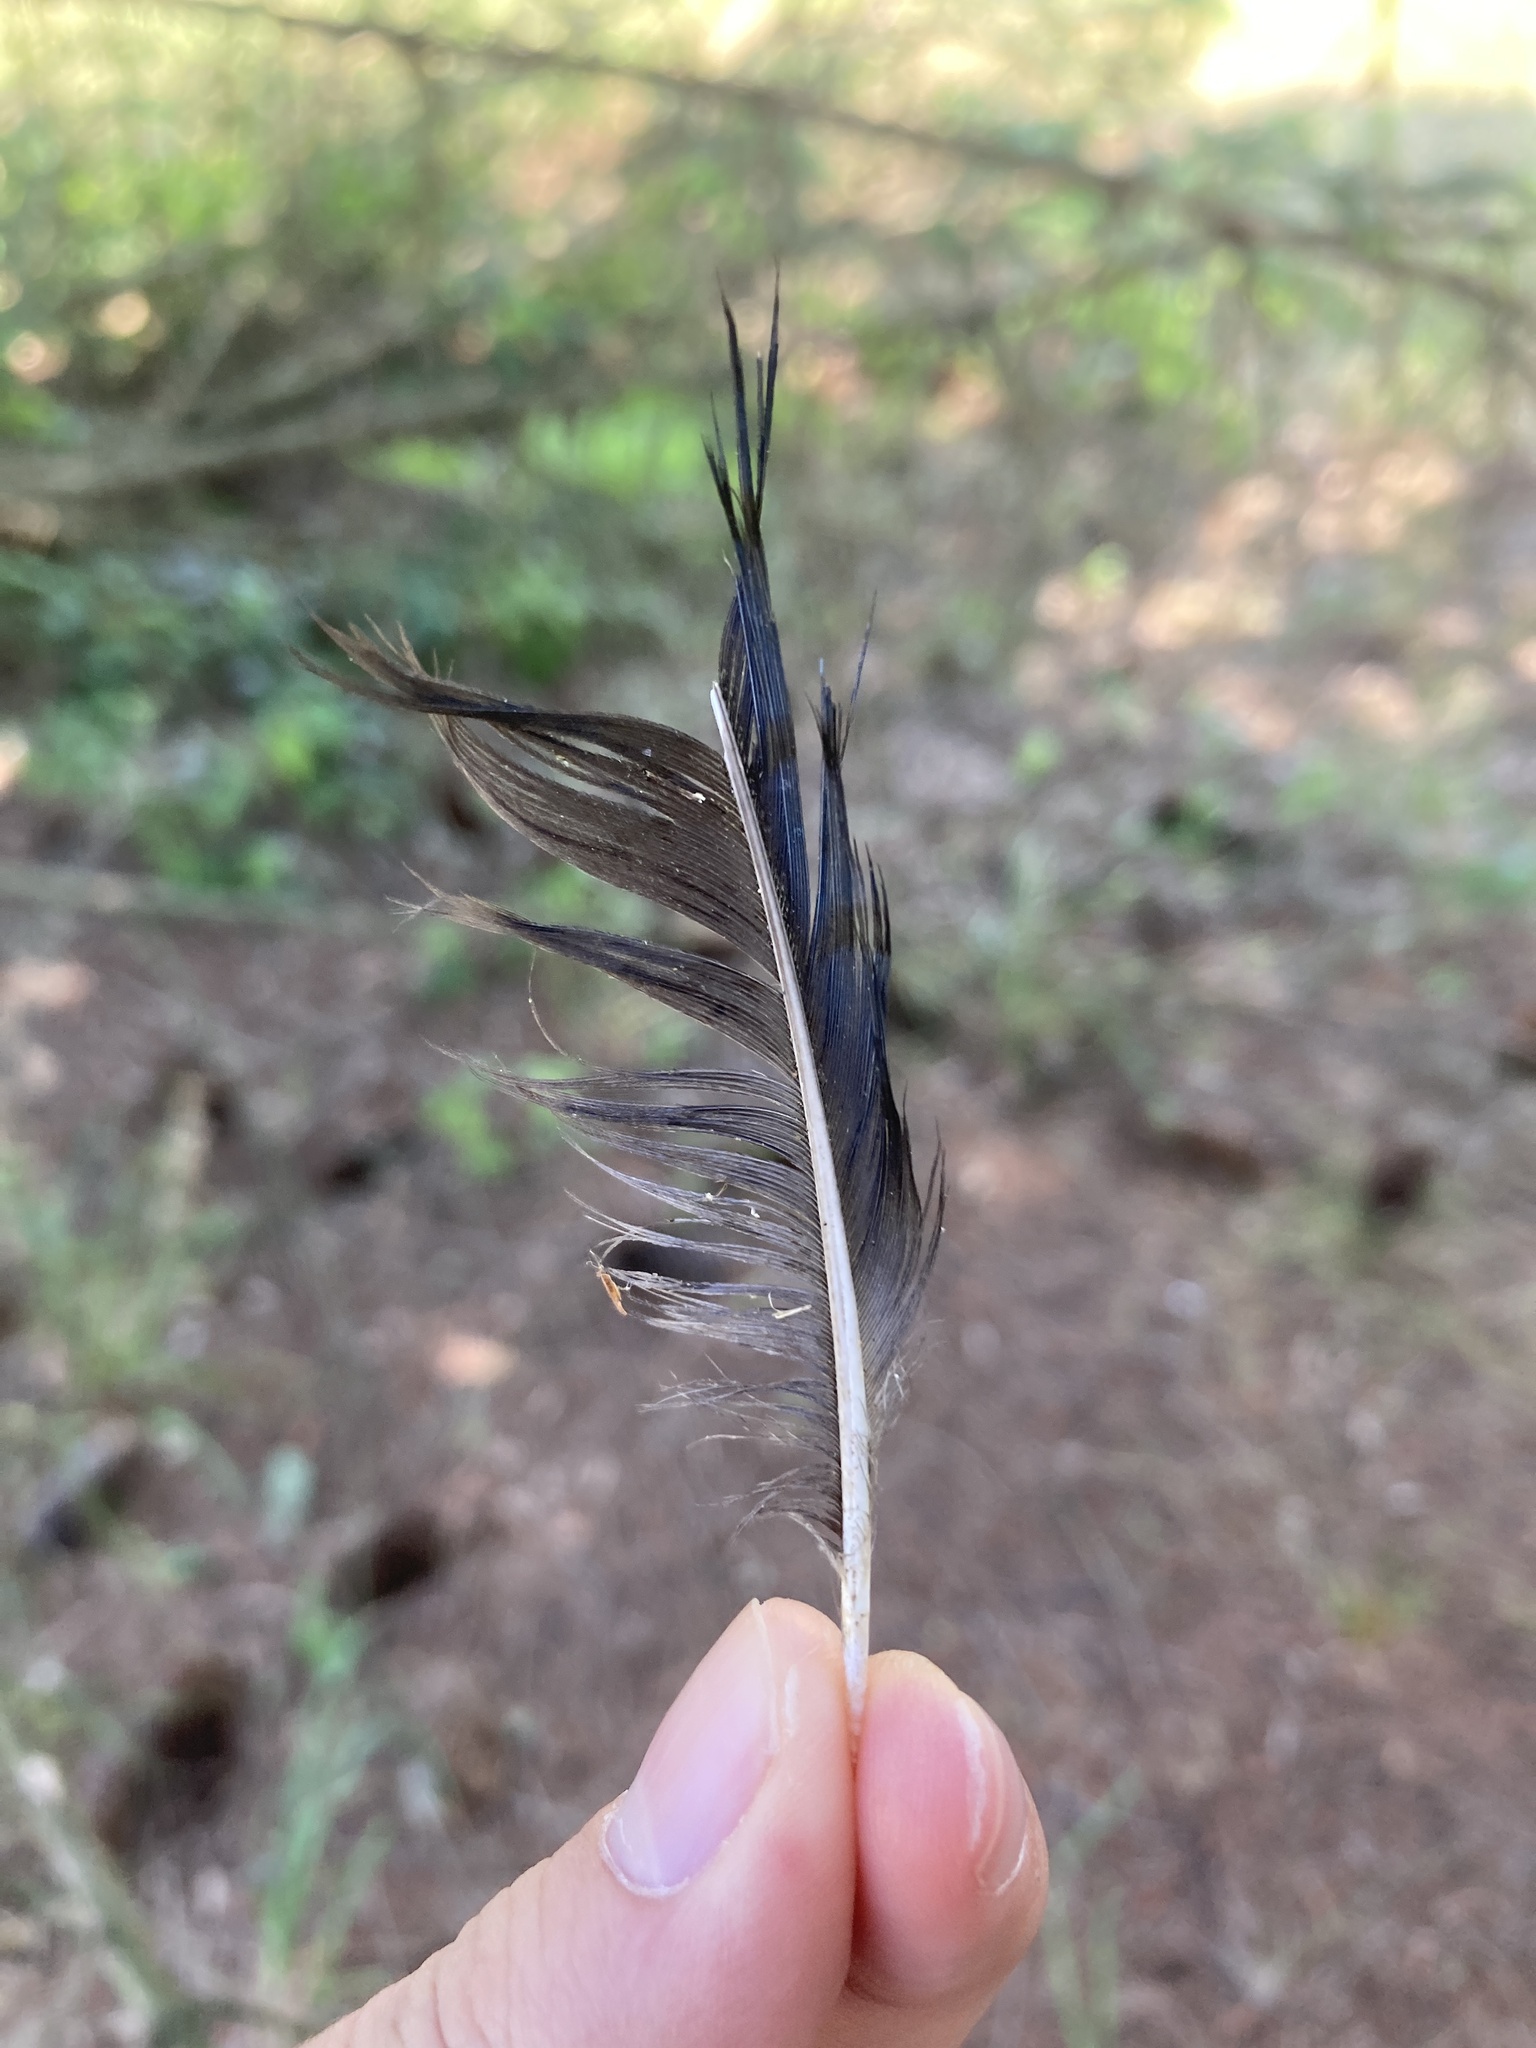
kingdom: Animalia
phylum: Chordata
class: Aves
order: Passeriformes
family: Corvidae
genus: Cyanocitta
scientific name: Cyanocitta cristata
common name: Blue jay
